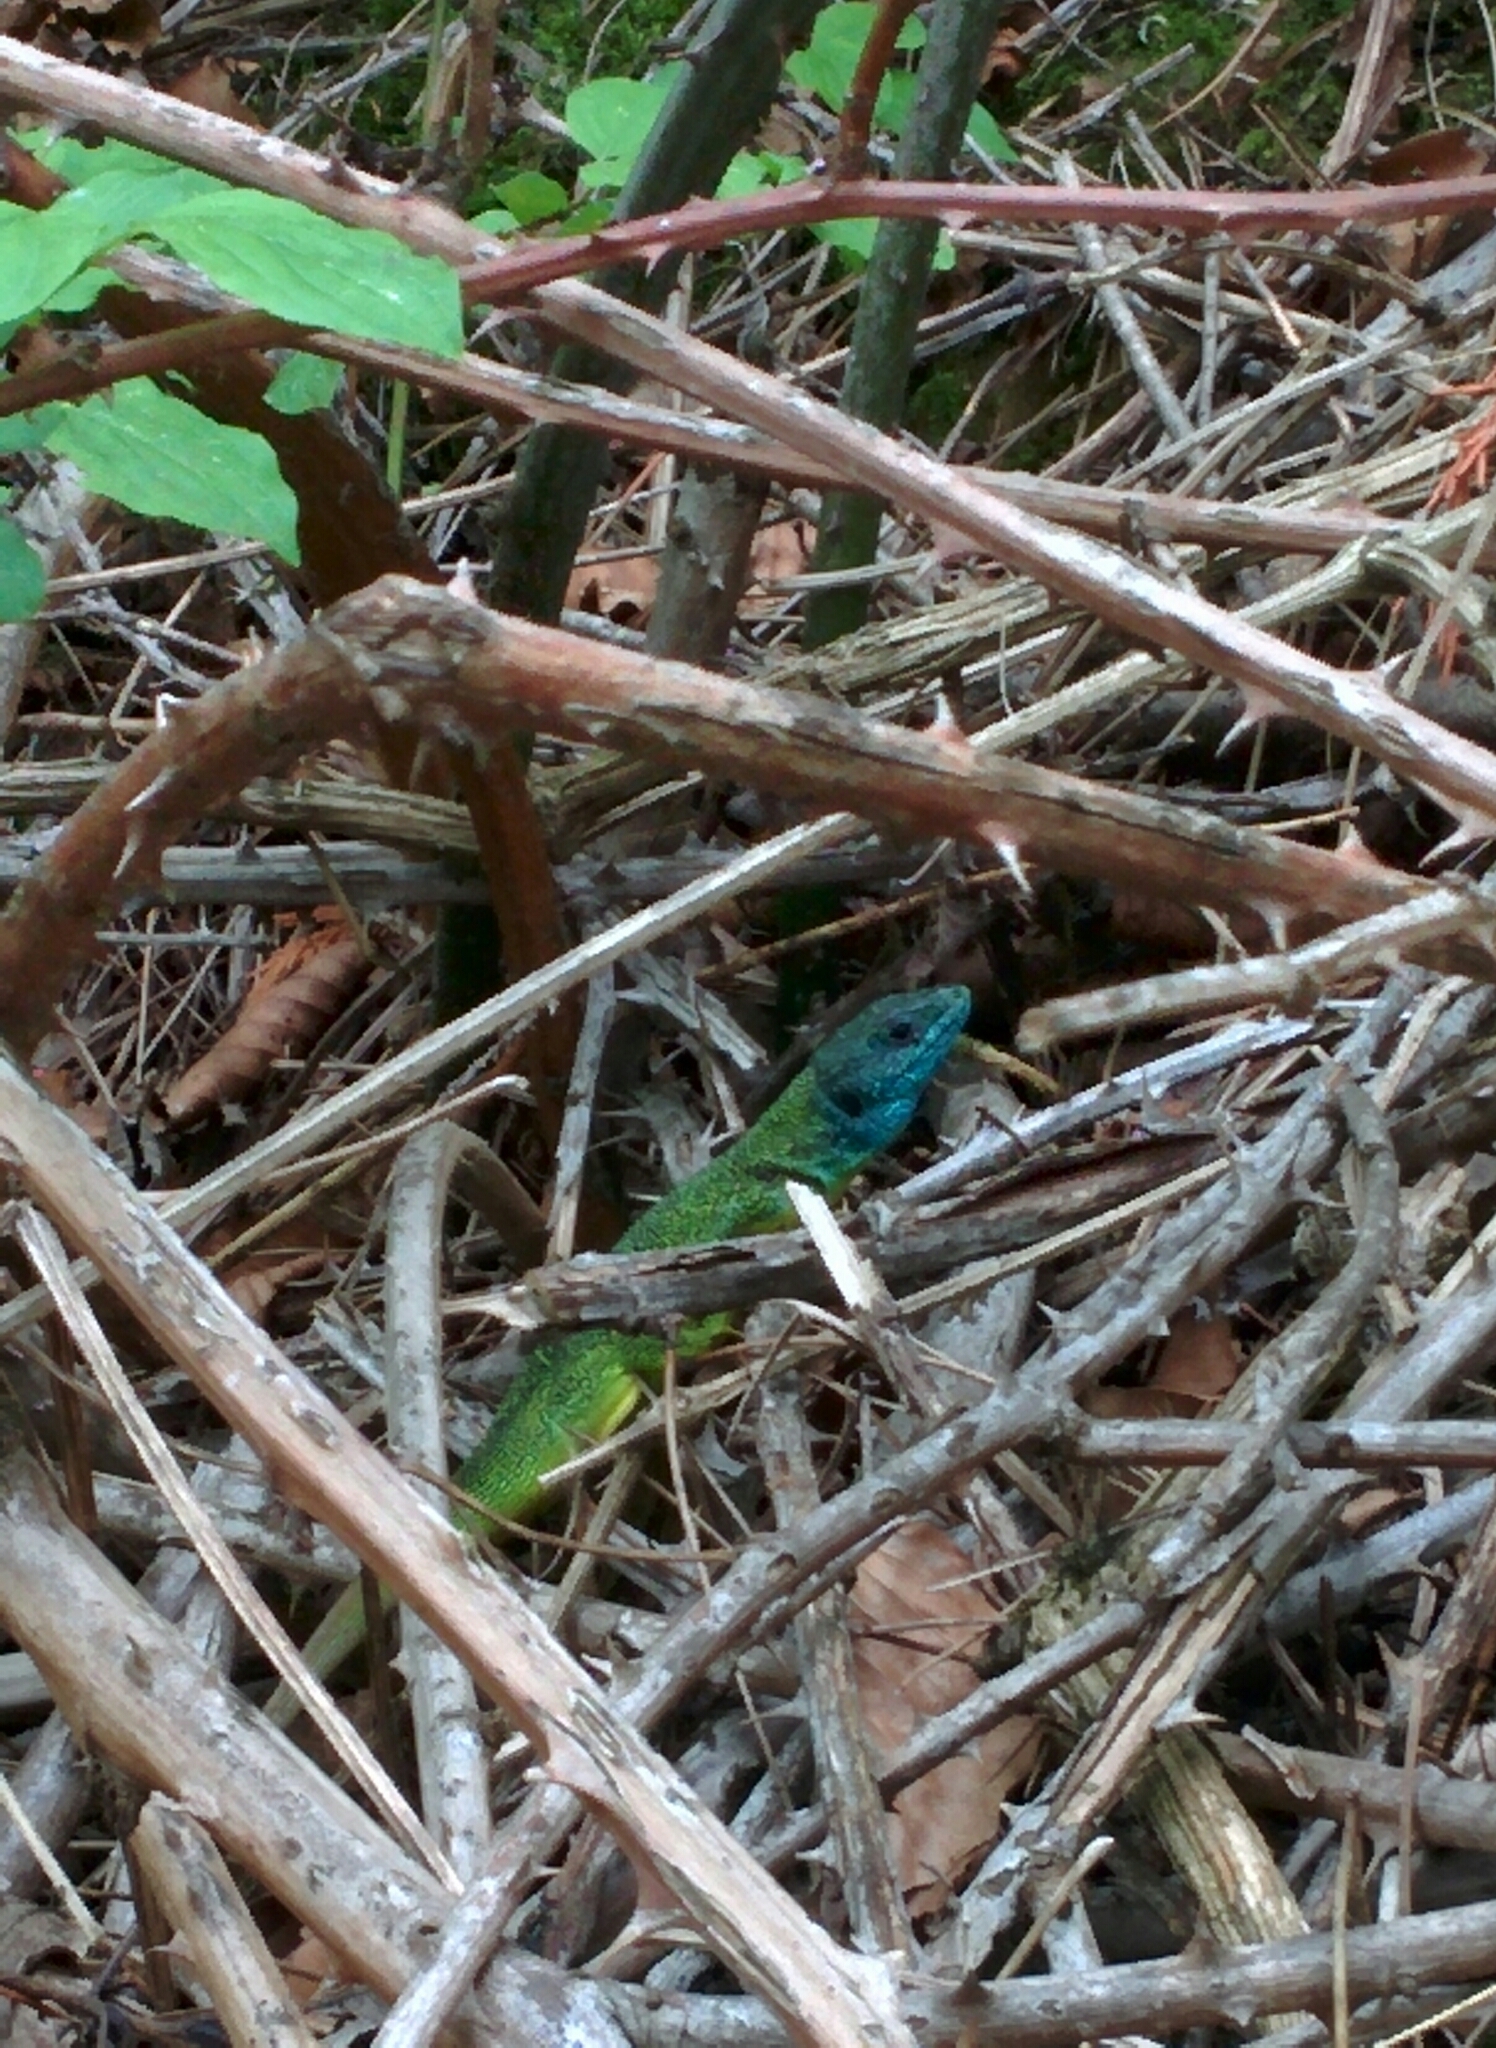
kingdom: Animalia
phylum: Chordata
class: Squamata
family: Lacertidae
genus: Lacerta
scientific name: Lacerta bilineata
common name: Western green lizard
